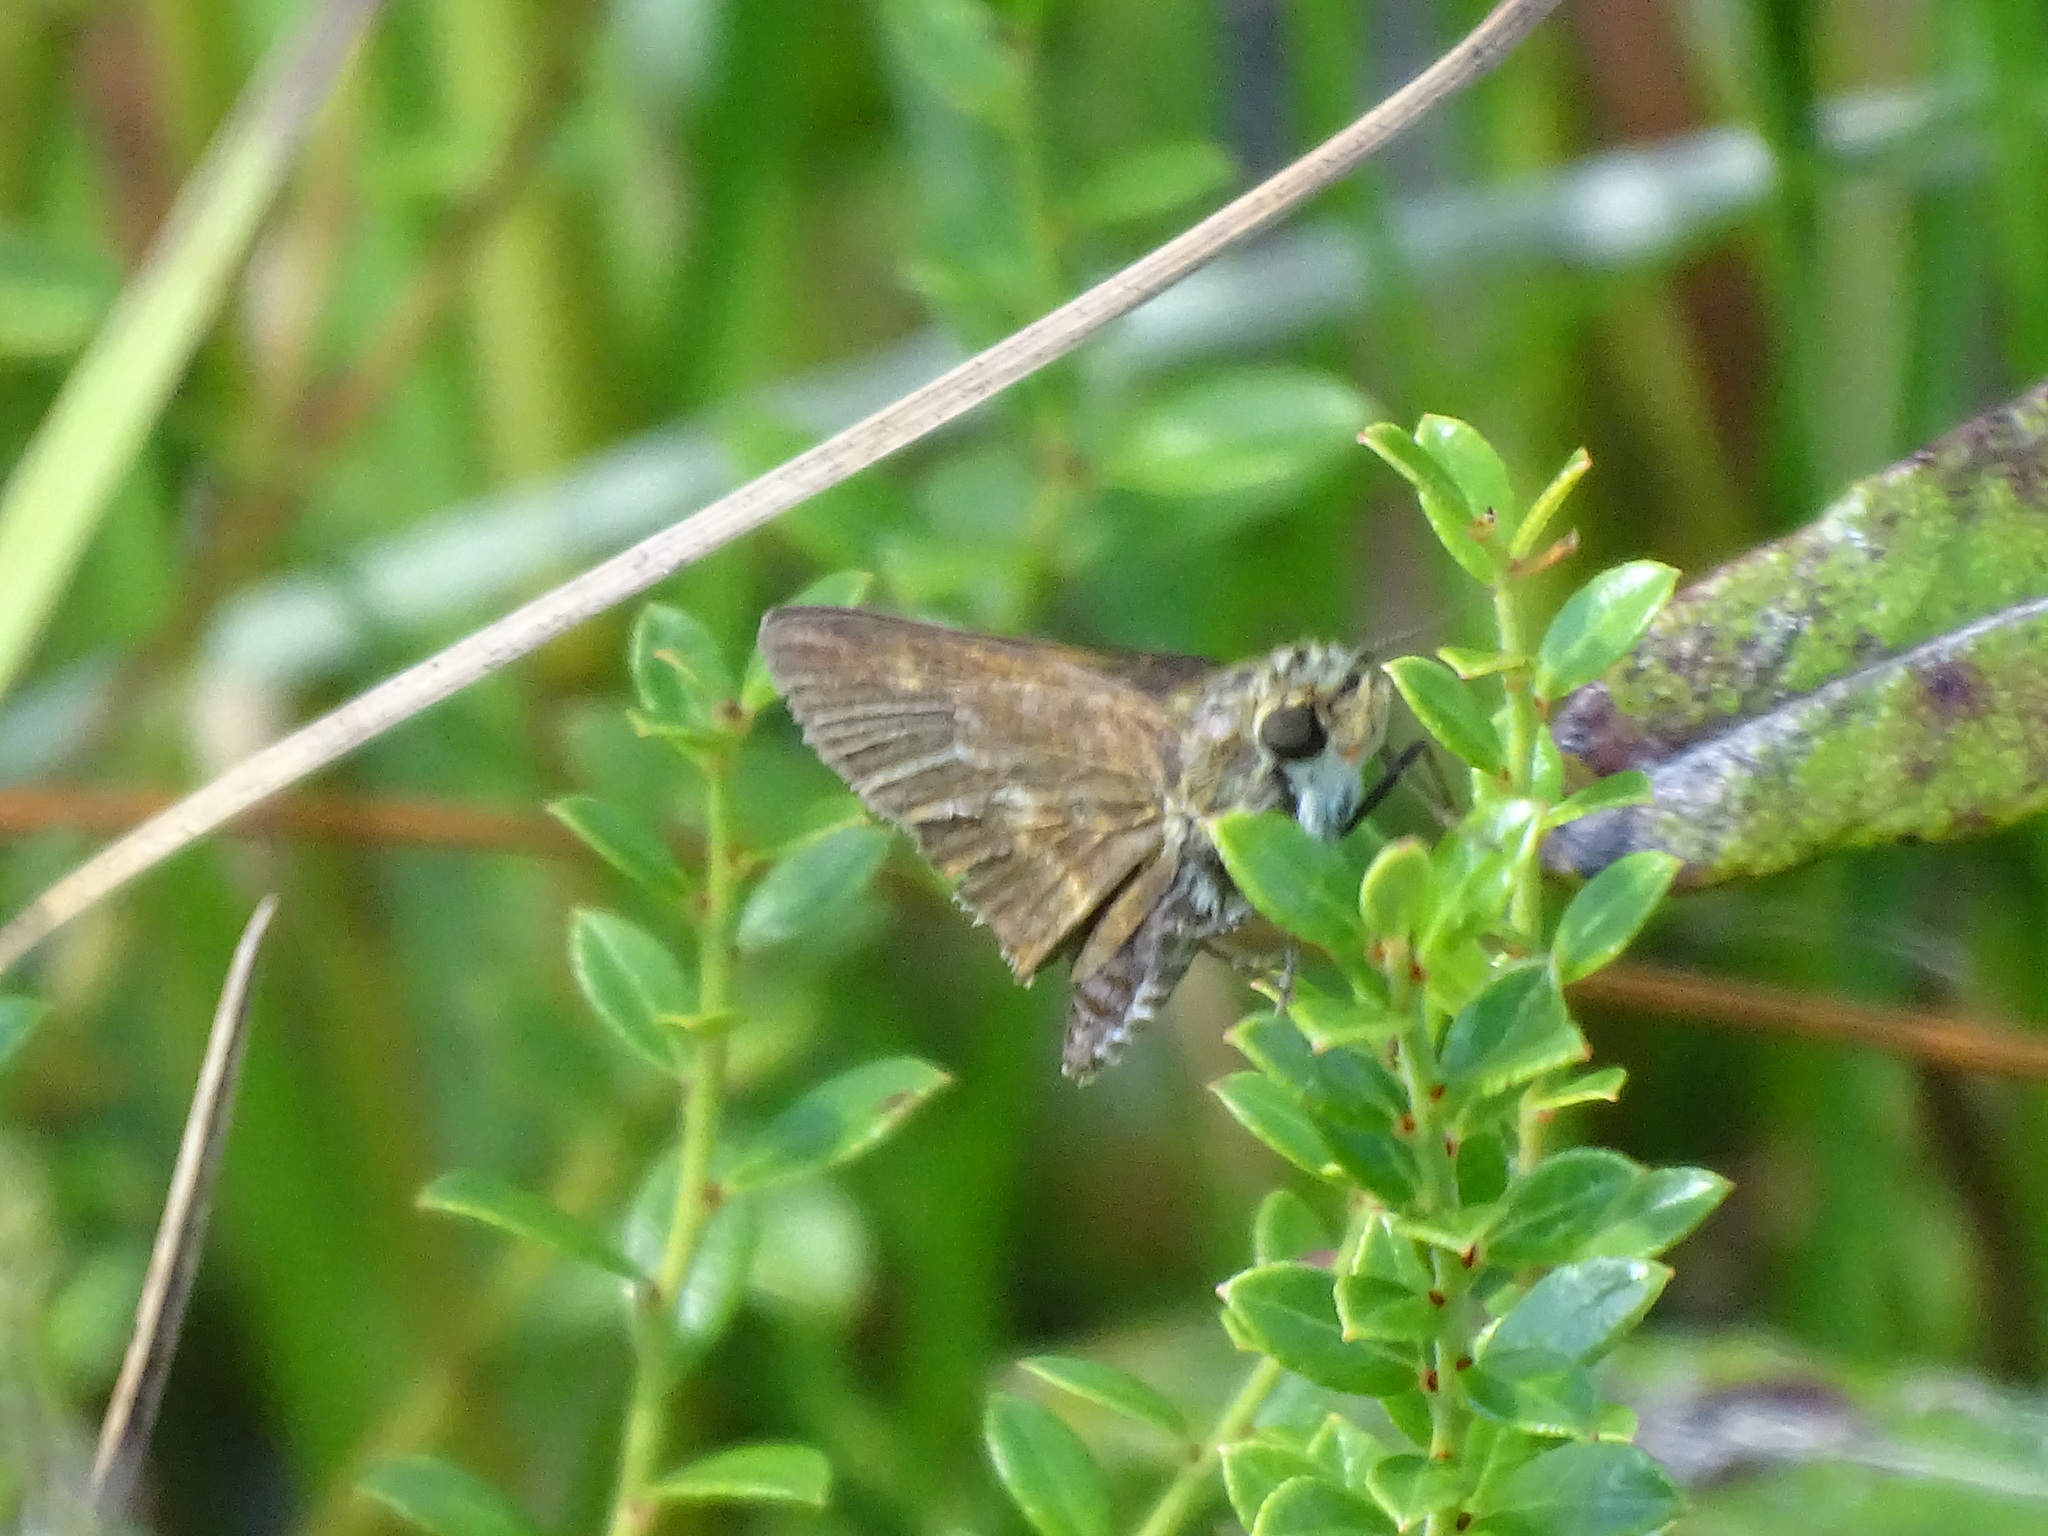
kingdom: Animalia
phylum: Arthropoda
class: Insecta
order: Lepidoptera
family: Hesperiidae
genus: Polites
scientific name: Polites egeremet
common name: Northern broken-dash
